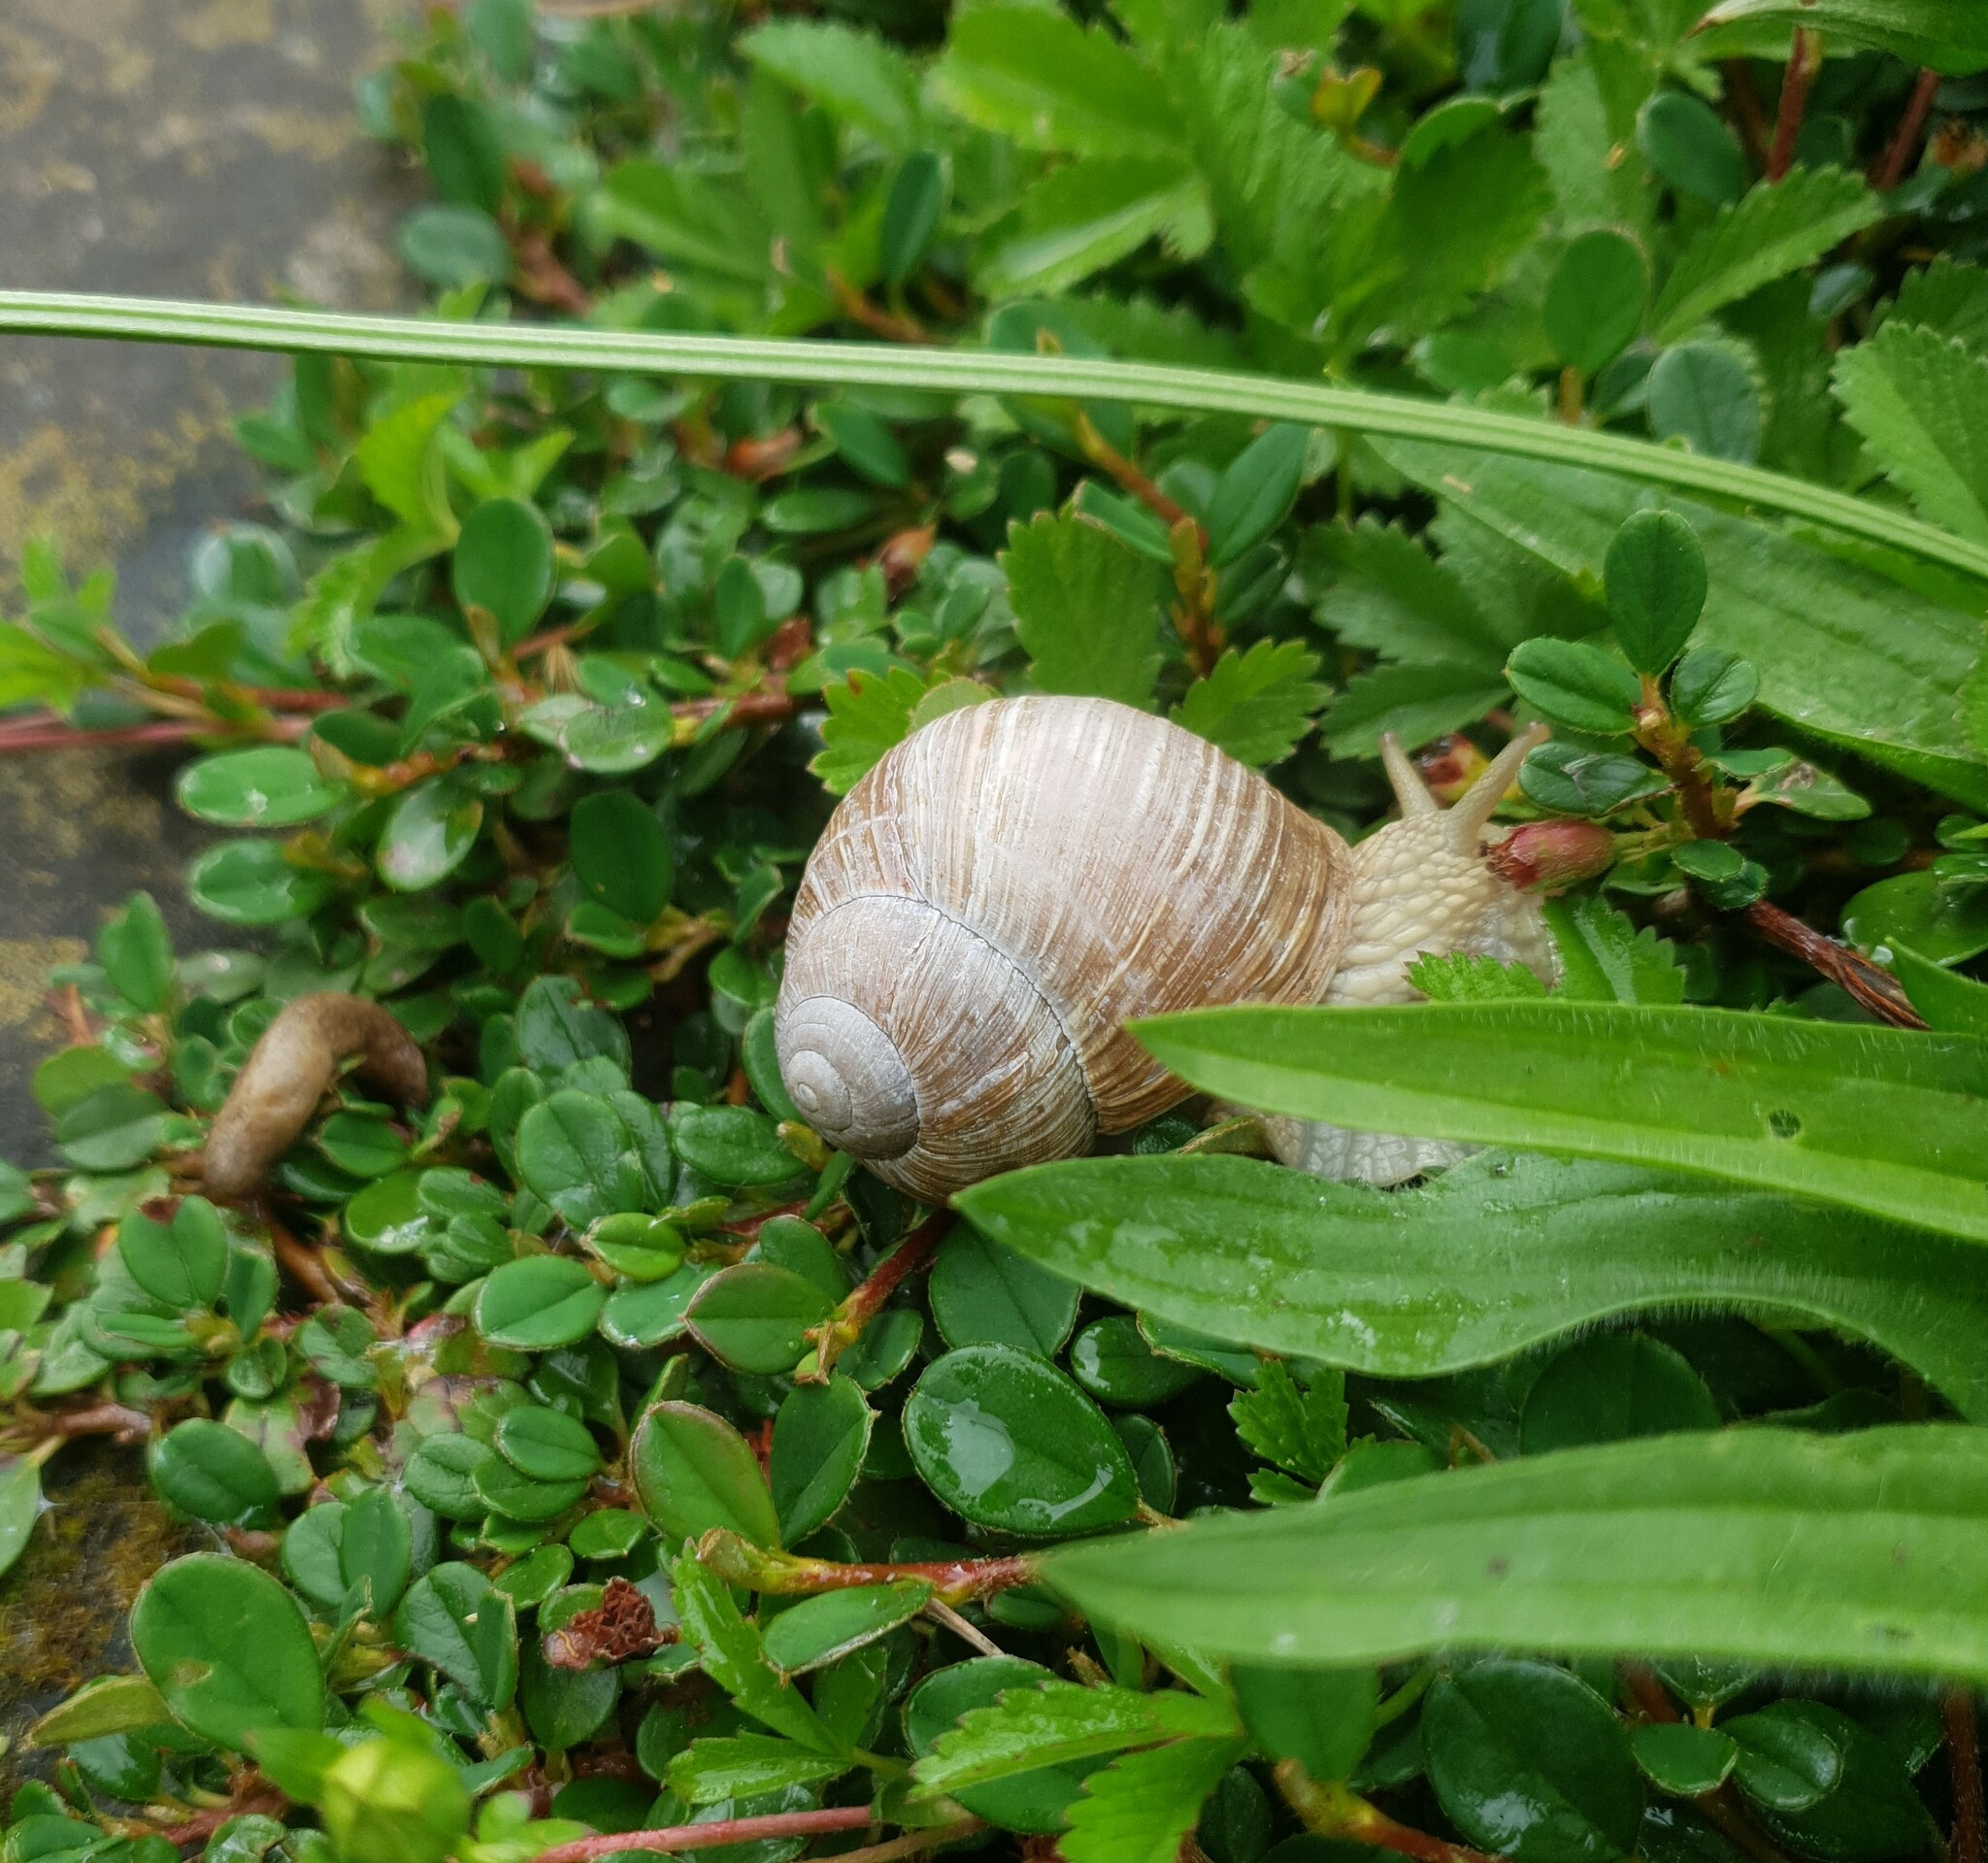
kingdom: Animalia
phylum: Mollusca
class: Gastropoda
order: Stylommatophora
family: Helicidae
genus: Helix
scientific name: Helix pomatia
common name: Roman snail
